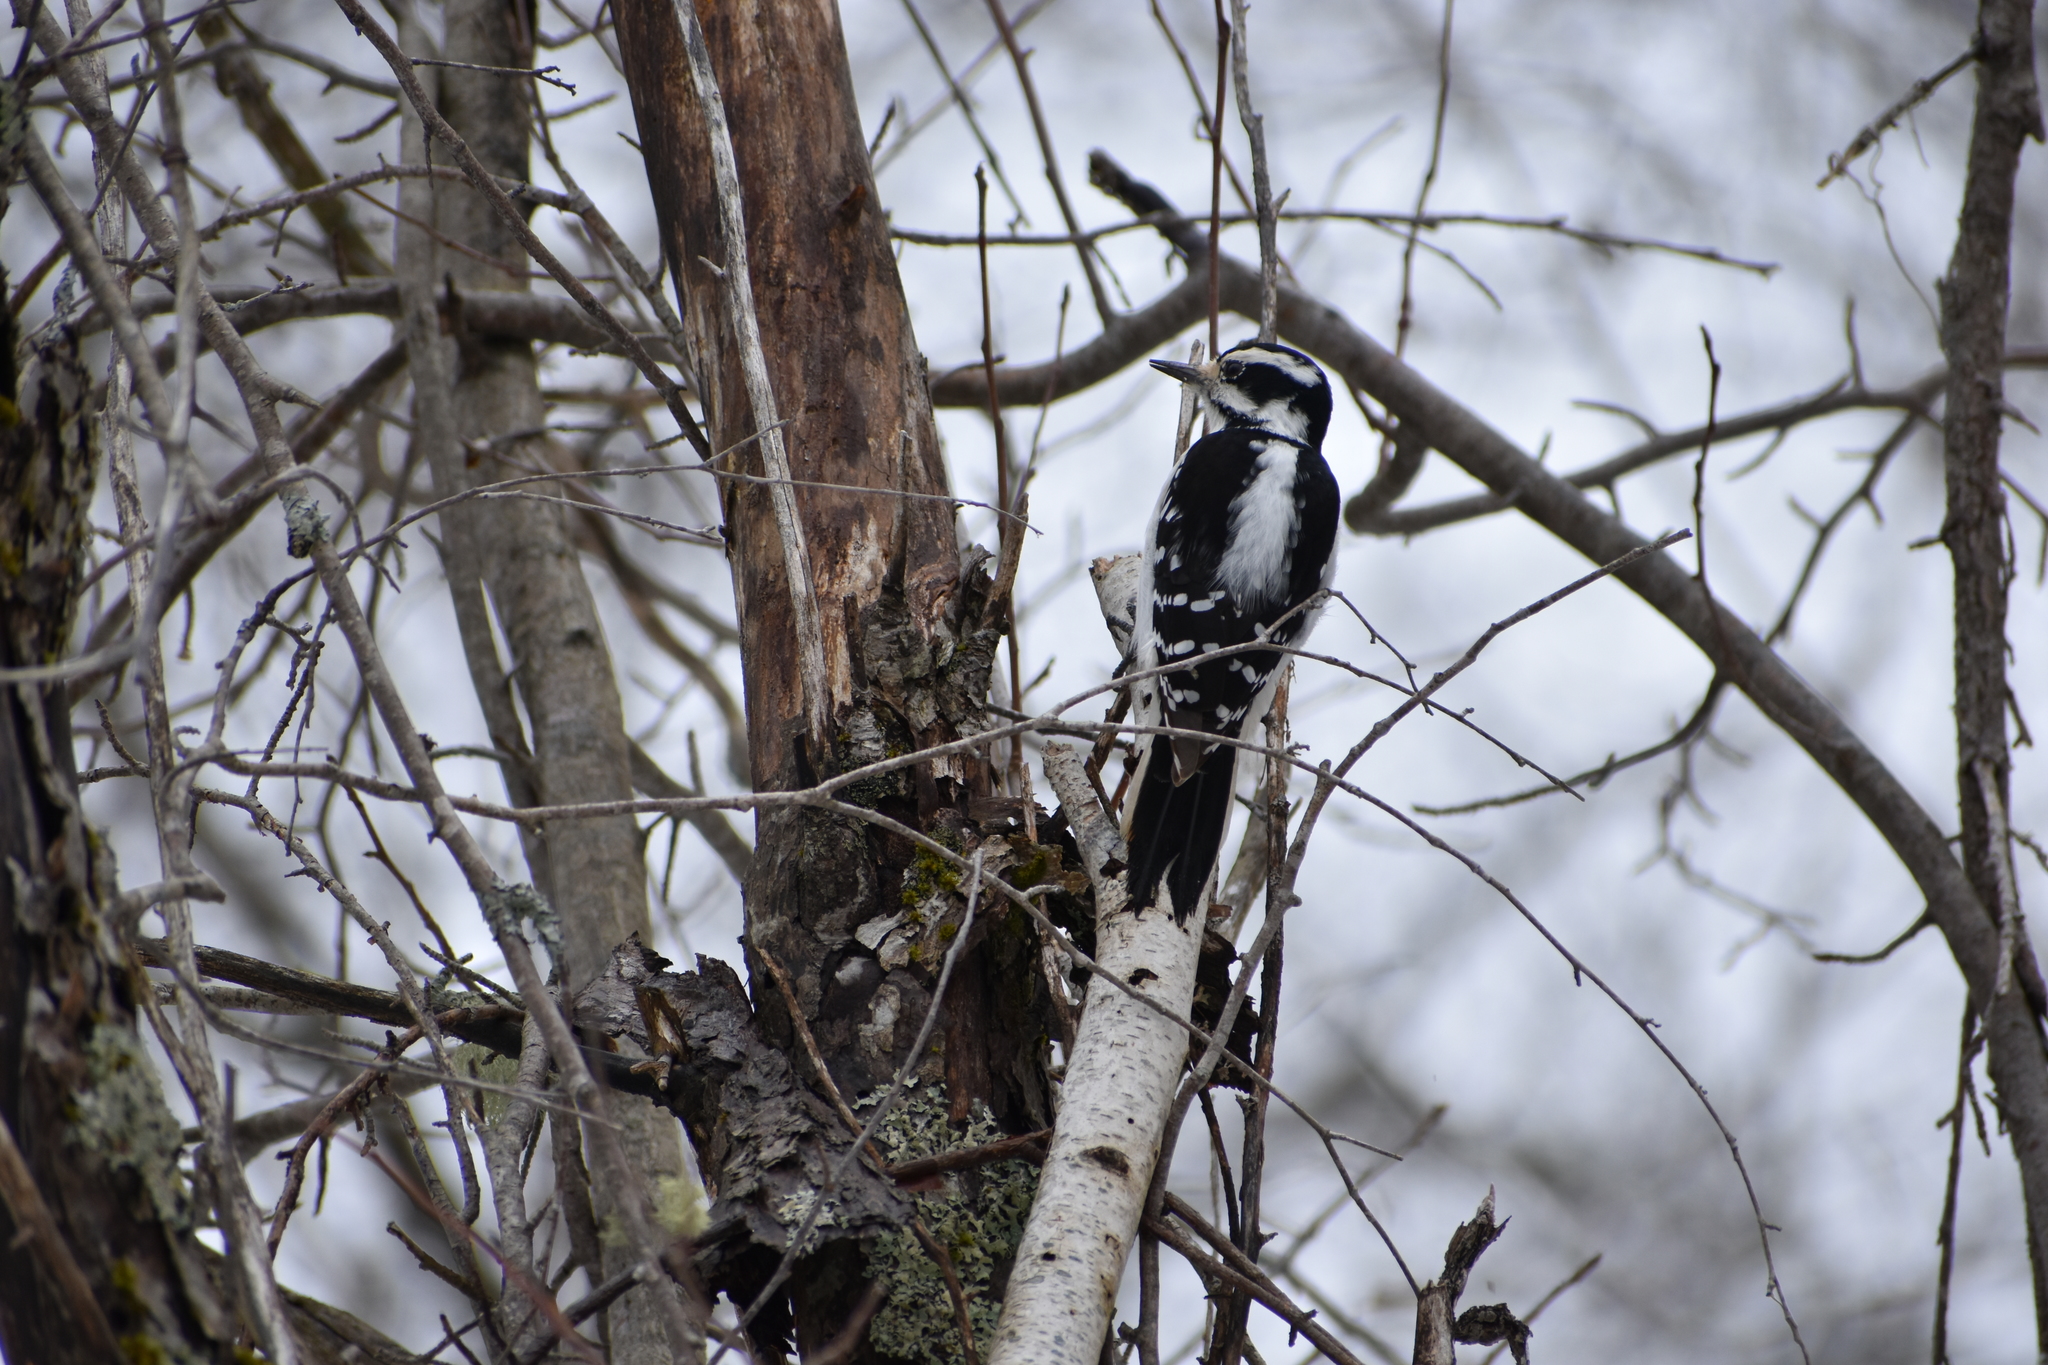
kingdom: Animalia
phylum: Chordata
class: Aves
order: Piciformes
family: Picidae
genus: Leuconotopicus
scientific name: Leuconotopicus villosus
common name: Hairy woodpecker
